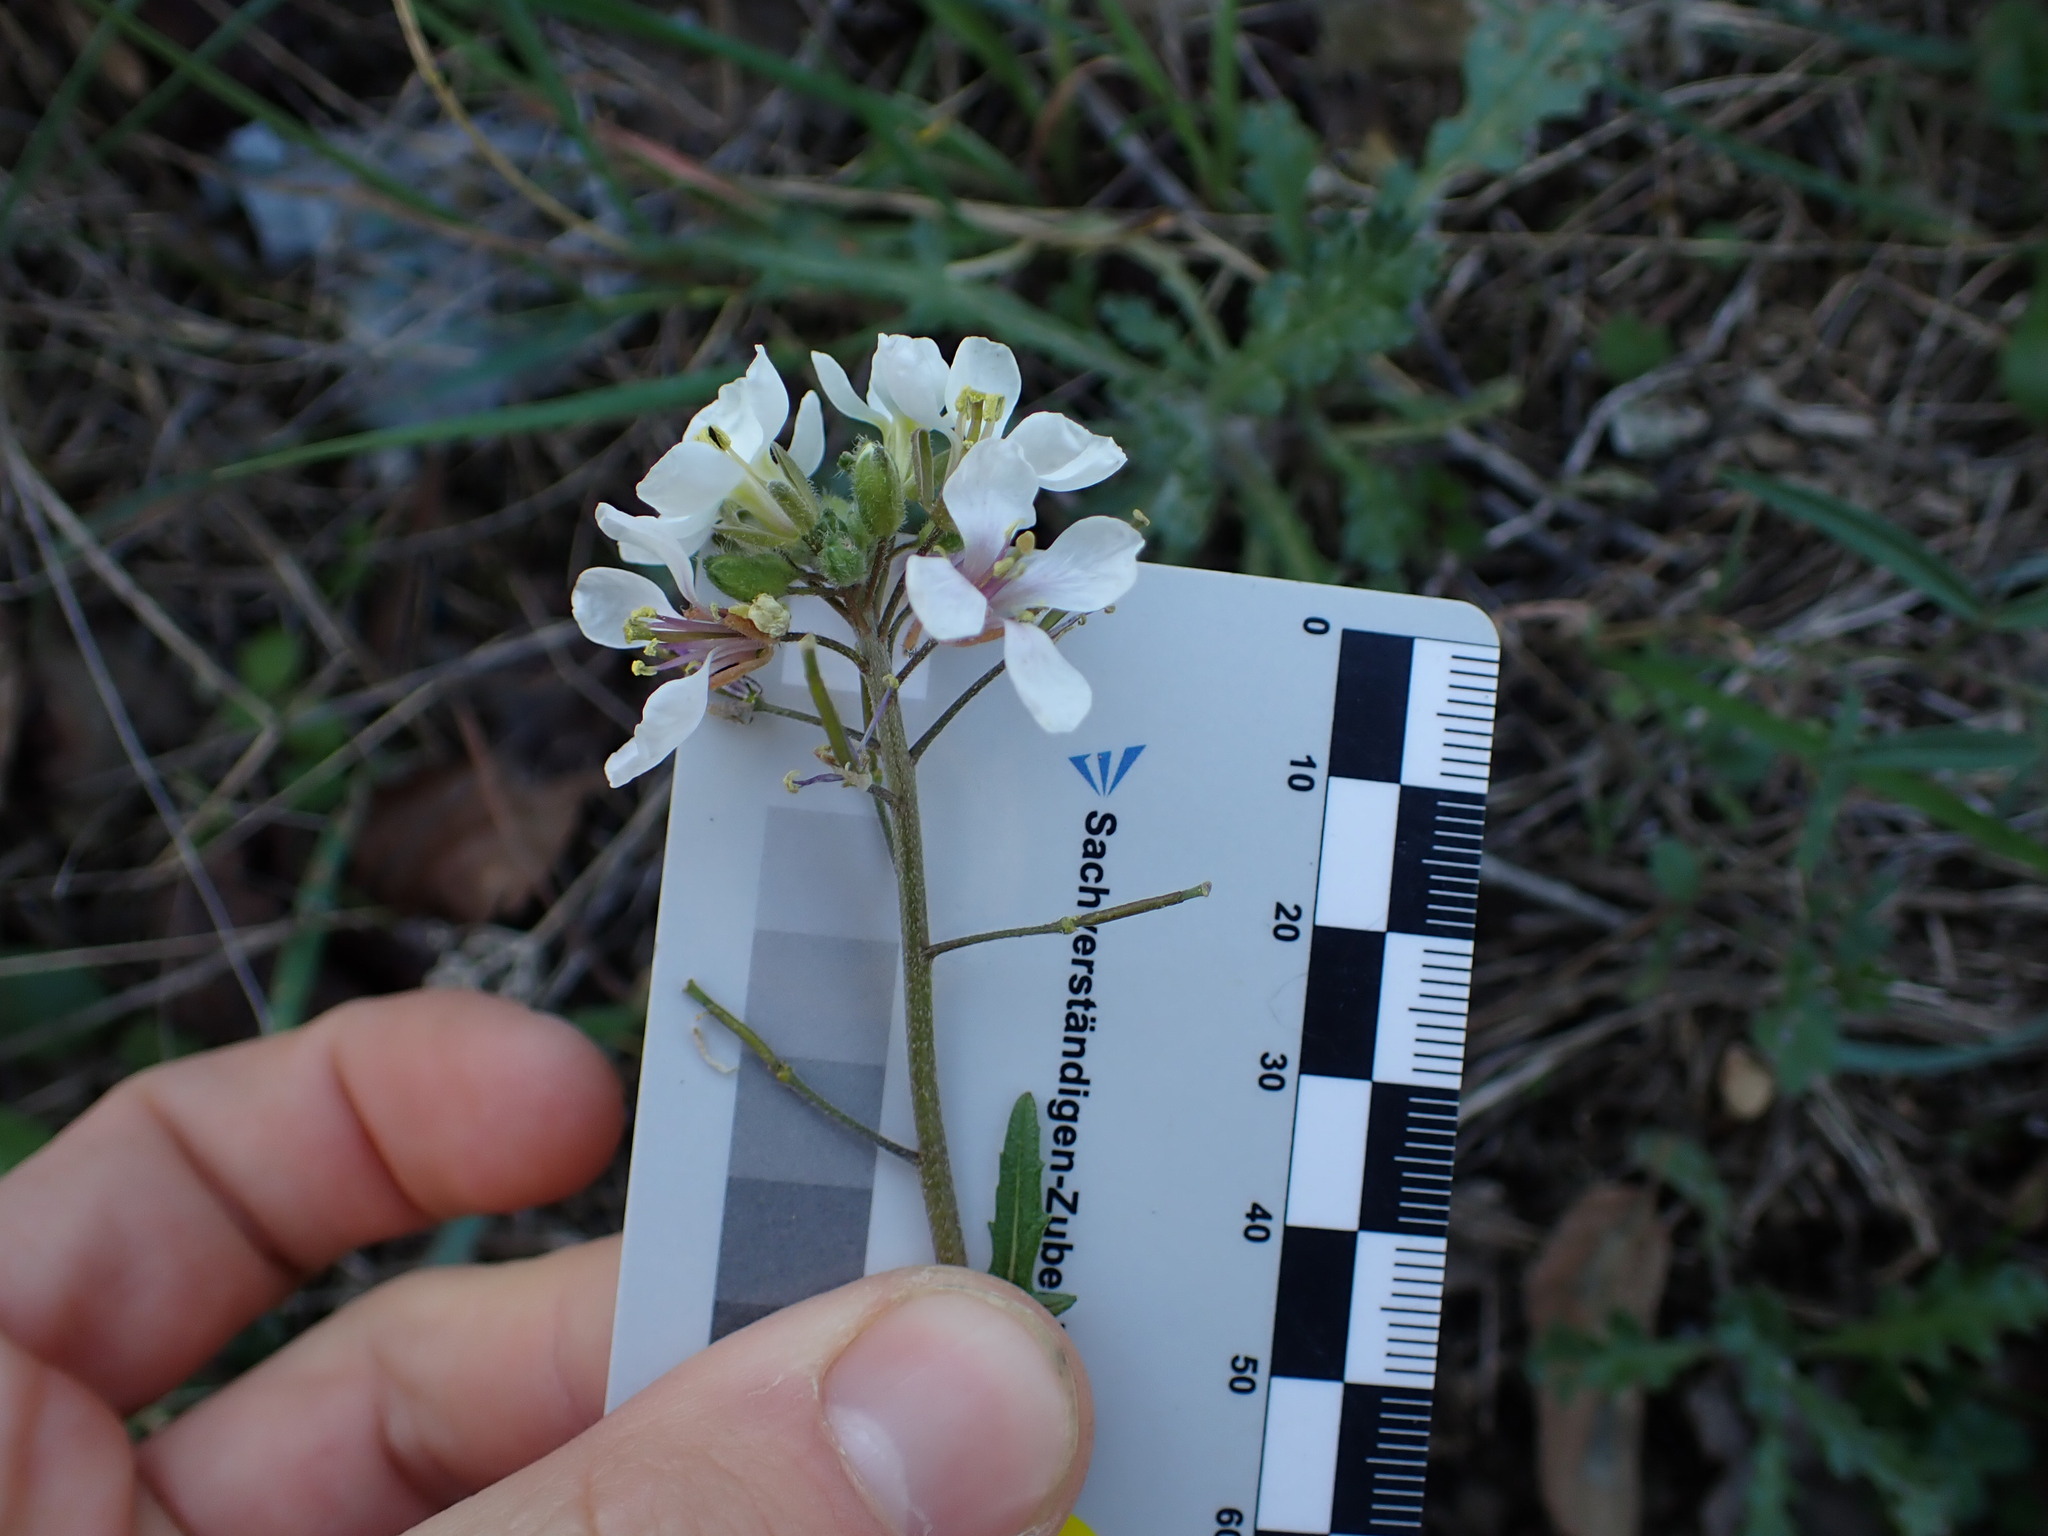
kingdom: Plantae
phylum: Tracheophyta
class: Magnoliopsida
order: Brassicales
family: Brassicaceae
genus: Diplotaxis
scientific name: Diplotaxis erucoides
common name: White rocket
